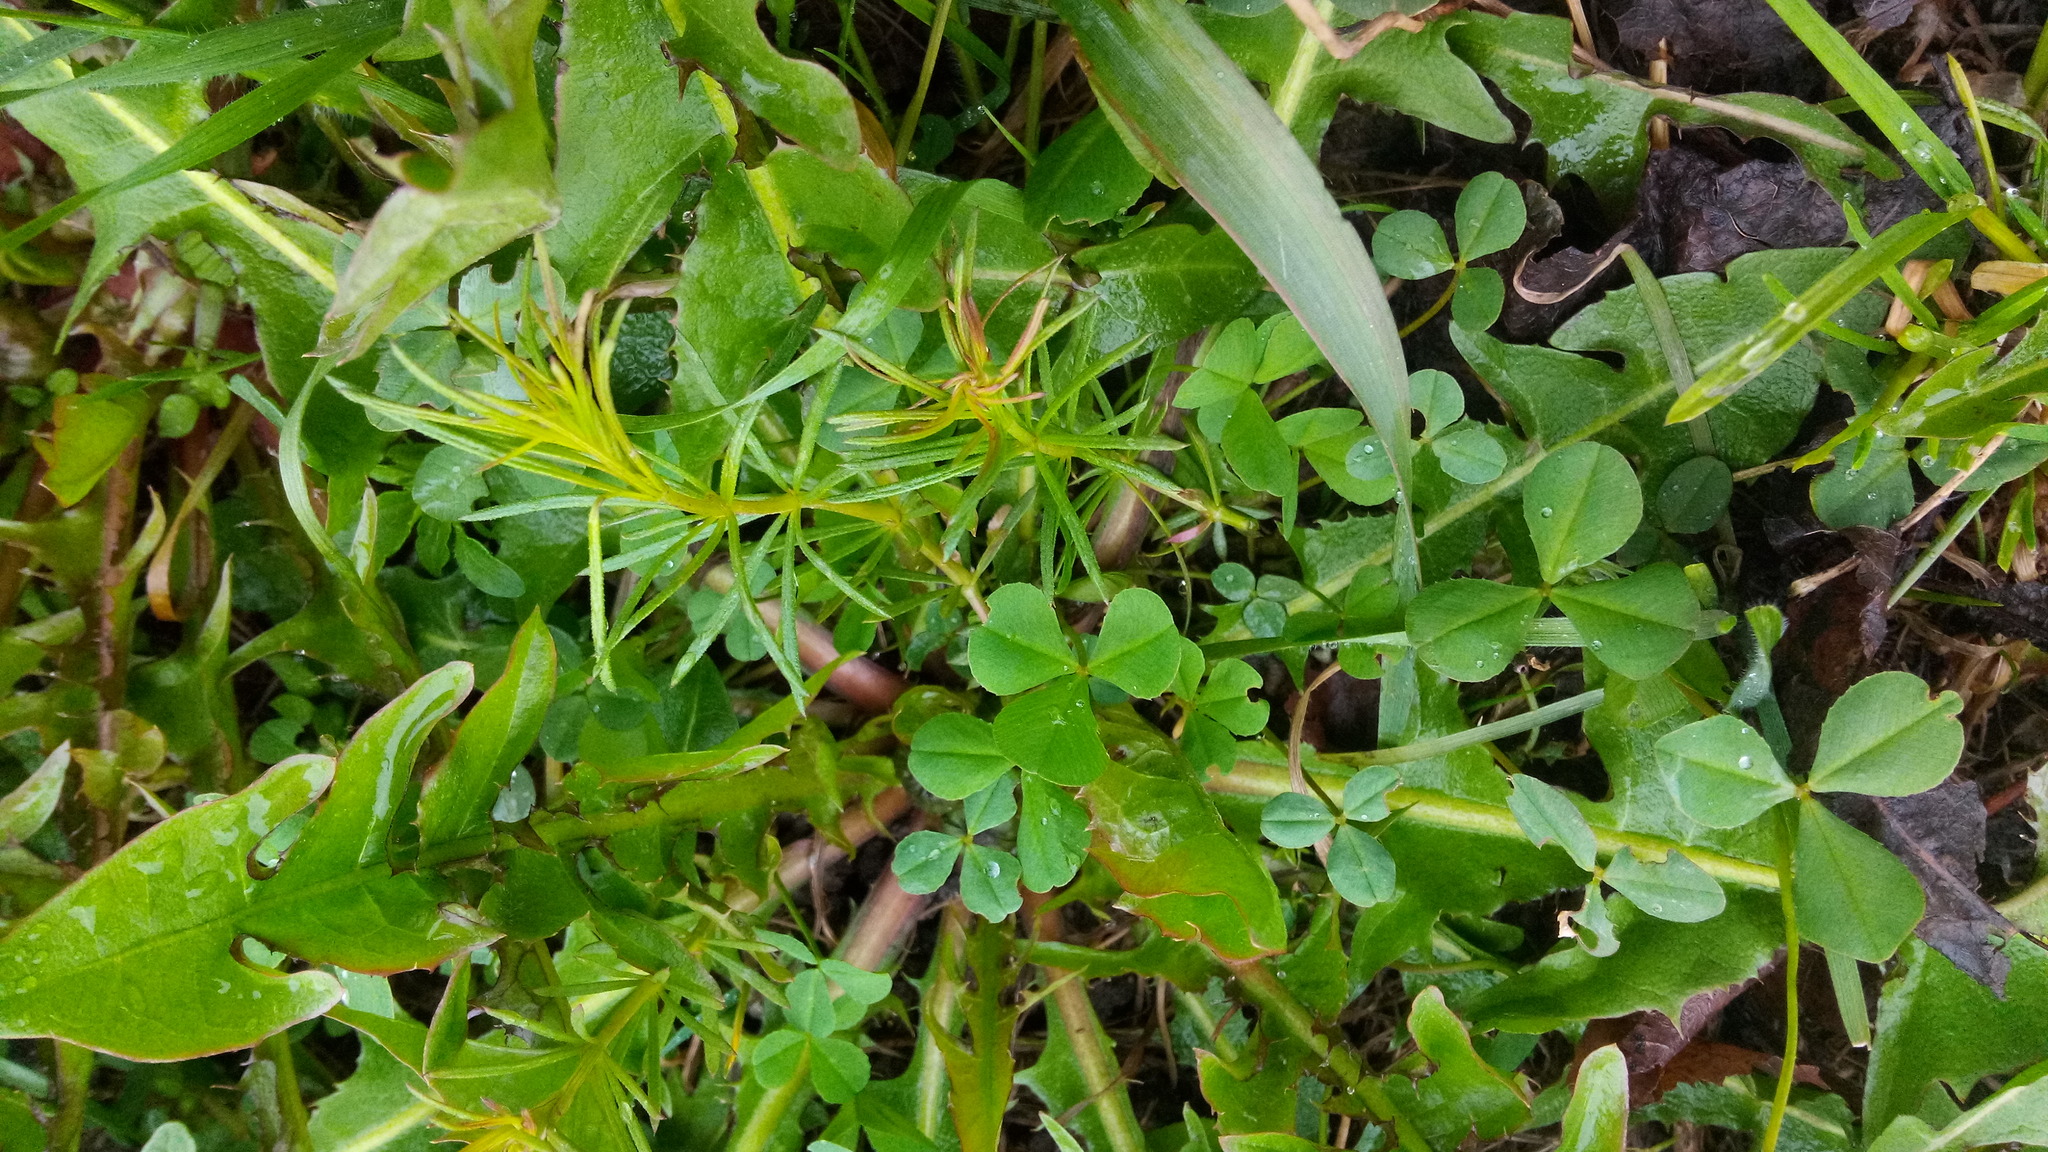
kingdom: Plantae
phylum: Tracheophyta
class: Magnoliopsida
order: Gentianales
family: Rubiaceae
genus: Galium
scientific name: Galium verum
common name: Lady's bedstraw
